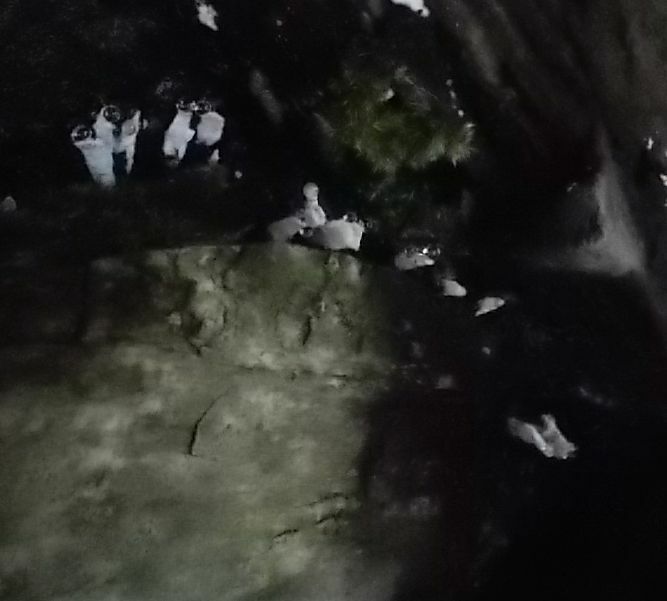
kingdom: Fungi
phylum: Ascomycota
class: Sordariomycetes
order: Xylariales
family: Xylariaceae
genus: Xylaria
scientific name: Xylaria hypoxylon
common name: Candle-snuff fungus
